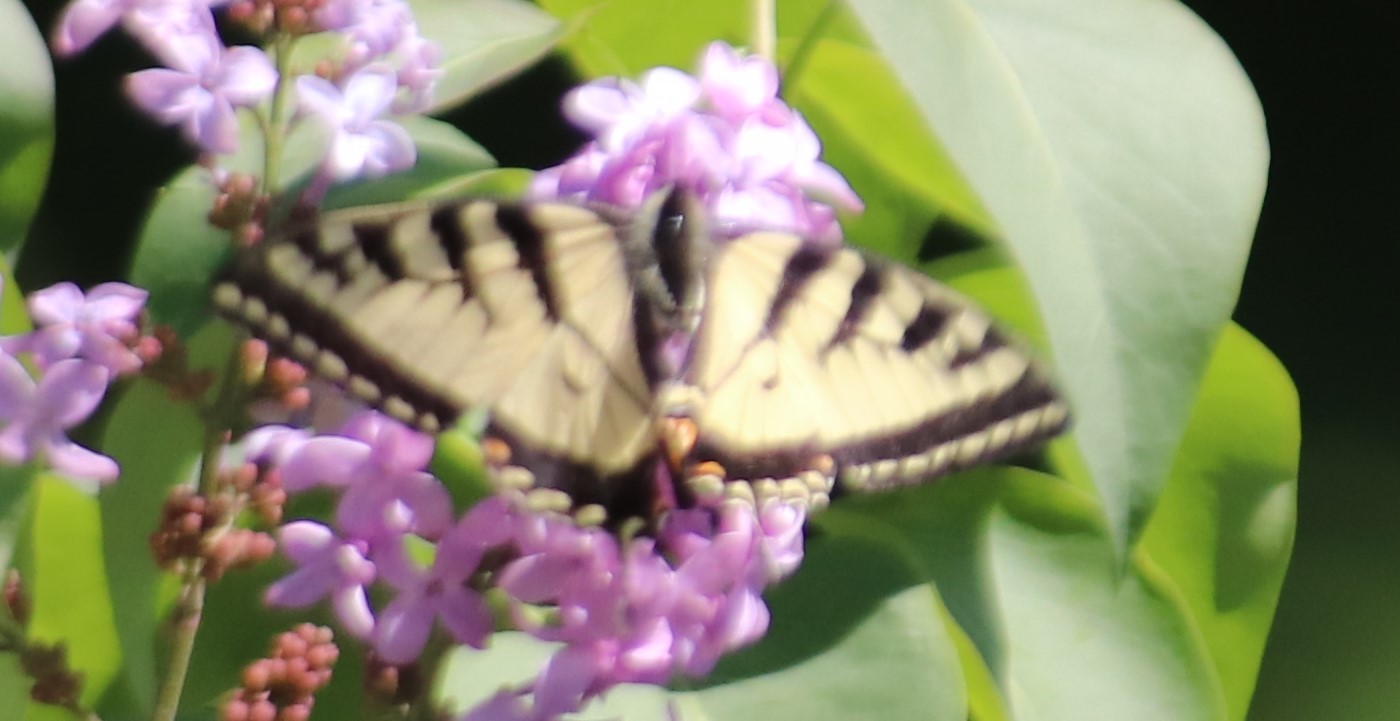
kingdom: Animalia
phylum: Arthropoda
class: Insecta
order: Lepidoptera
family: Papilionidae
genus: Papilio
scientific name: Papilio canadensis
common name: Canadian tiger swallowtail
